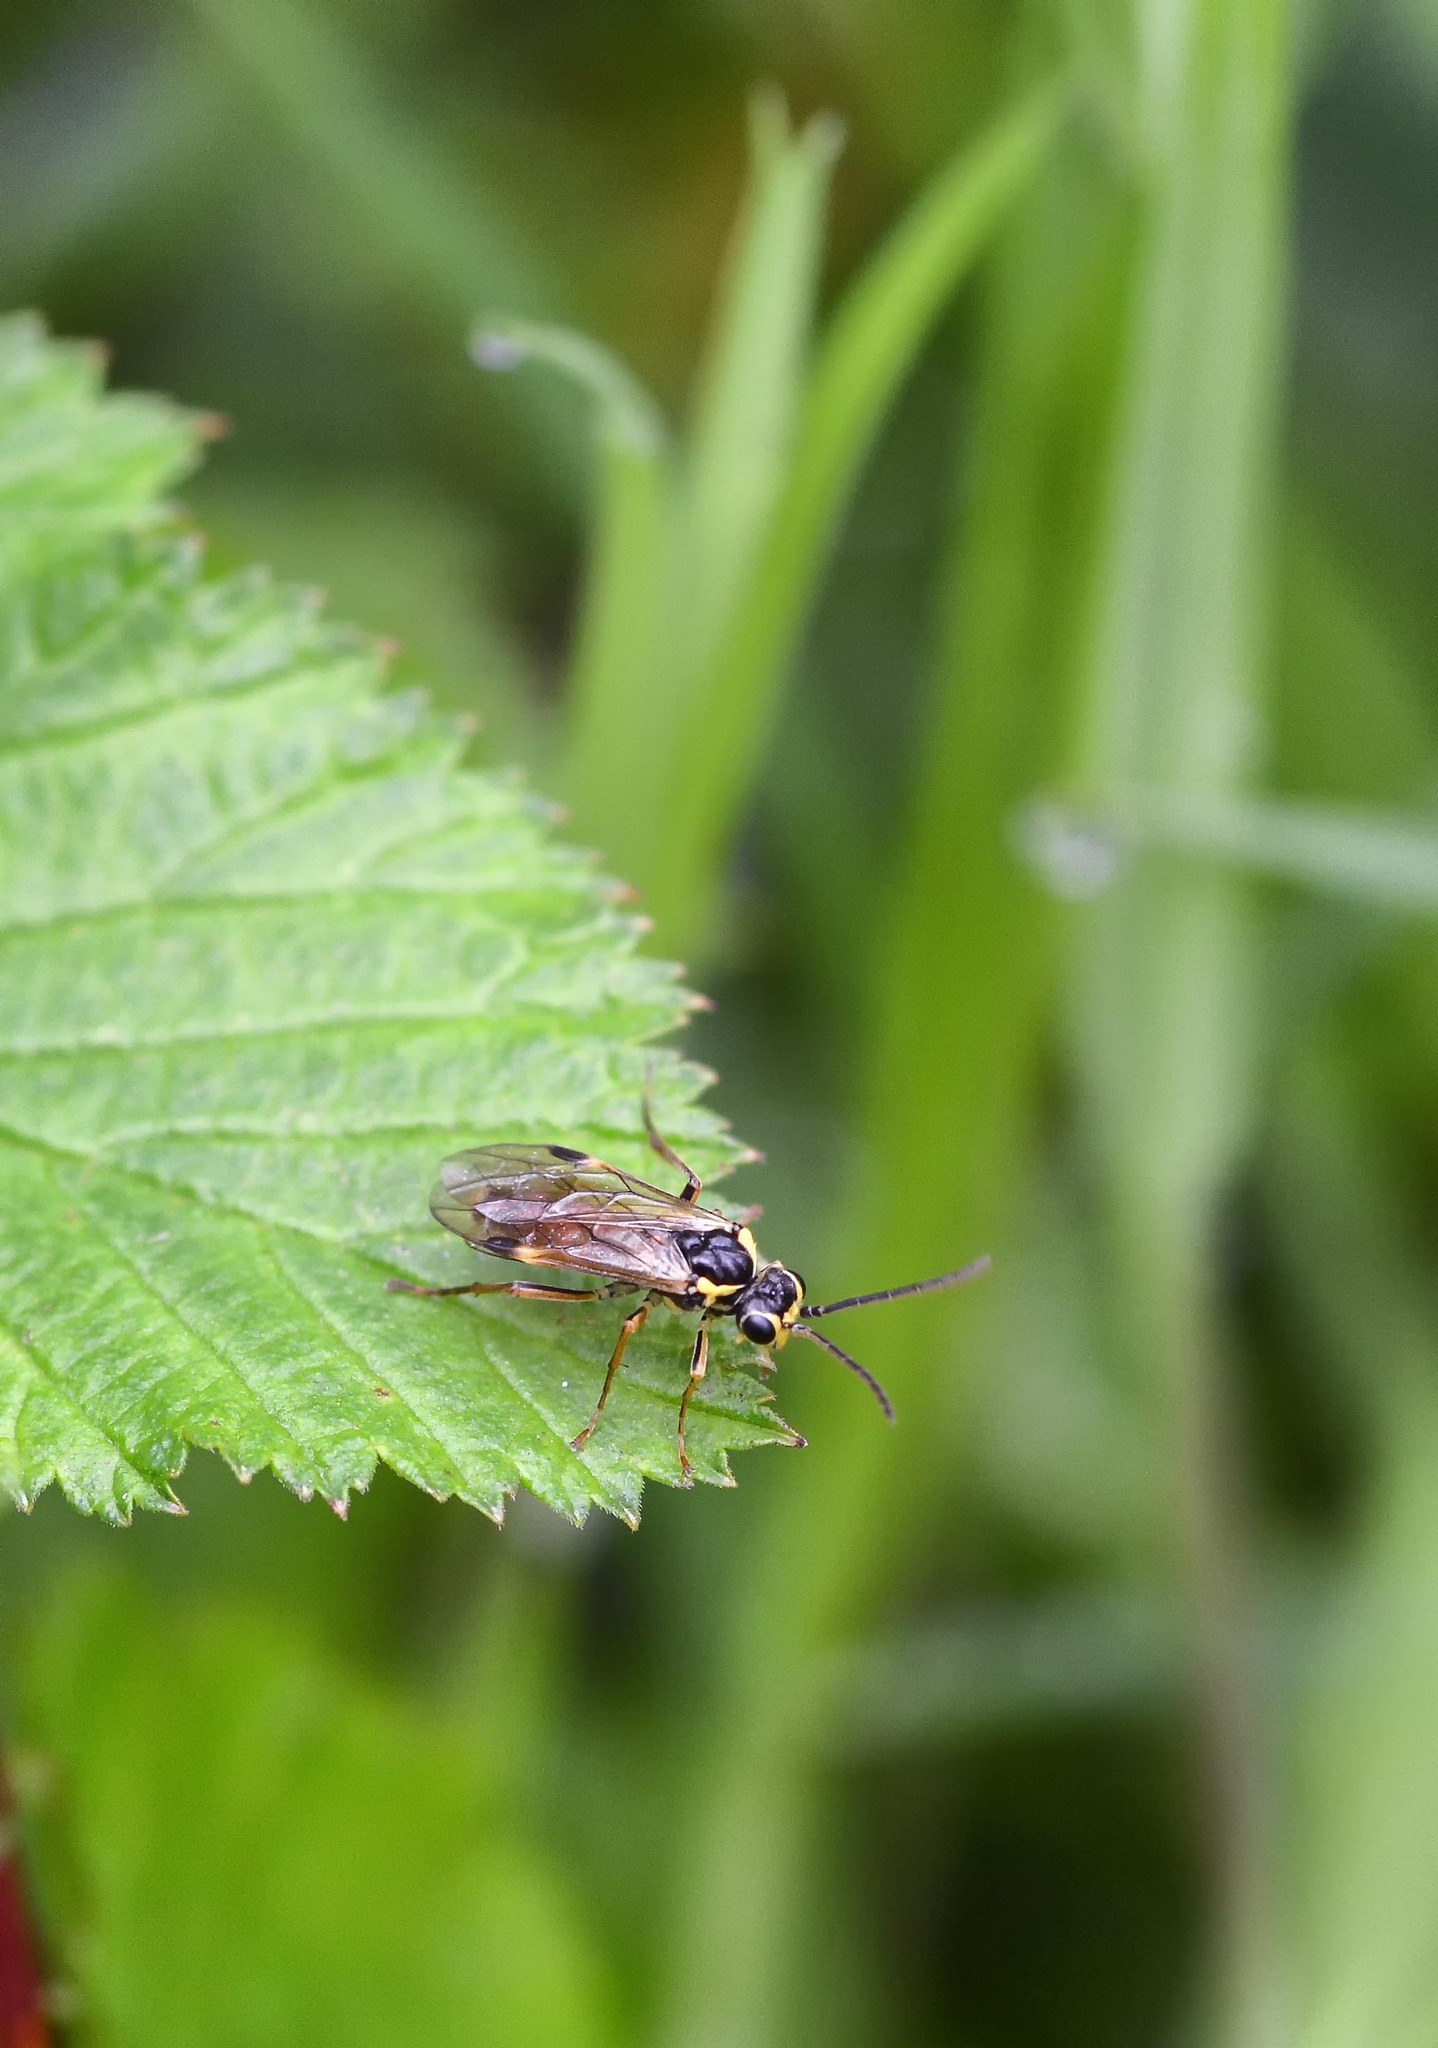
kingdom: Animalia
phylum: Arthropoda
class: Insecta
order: Hymenoptera
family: Tenthredinidae
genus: Aglaostigma
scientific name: Aglaostigma fulvipes
